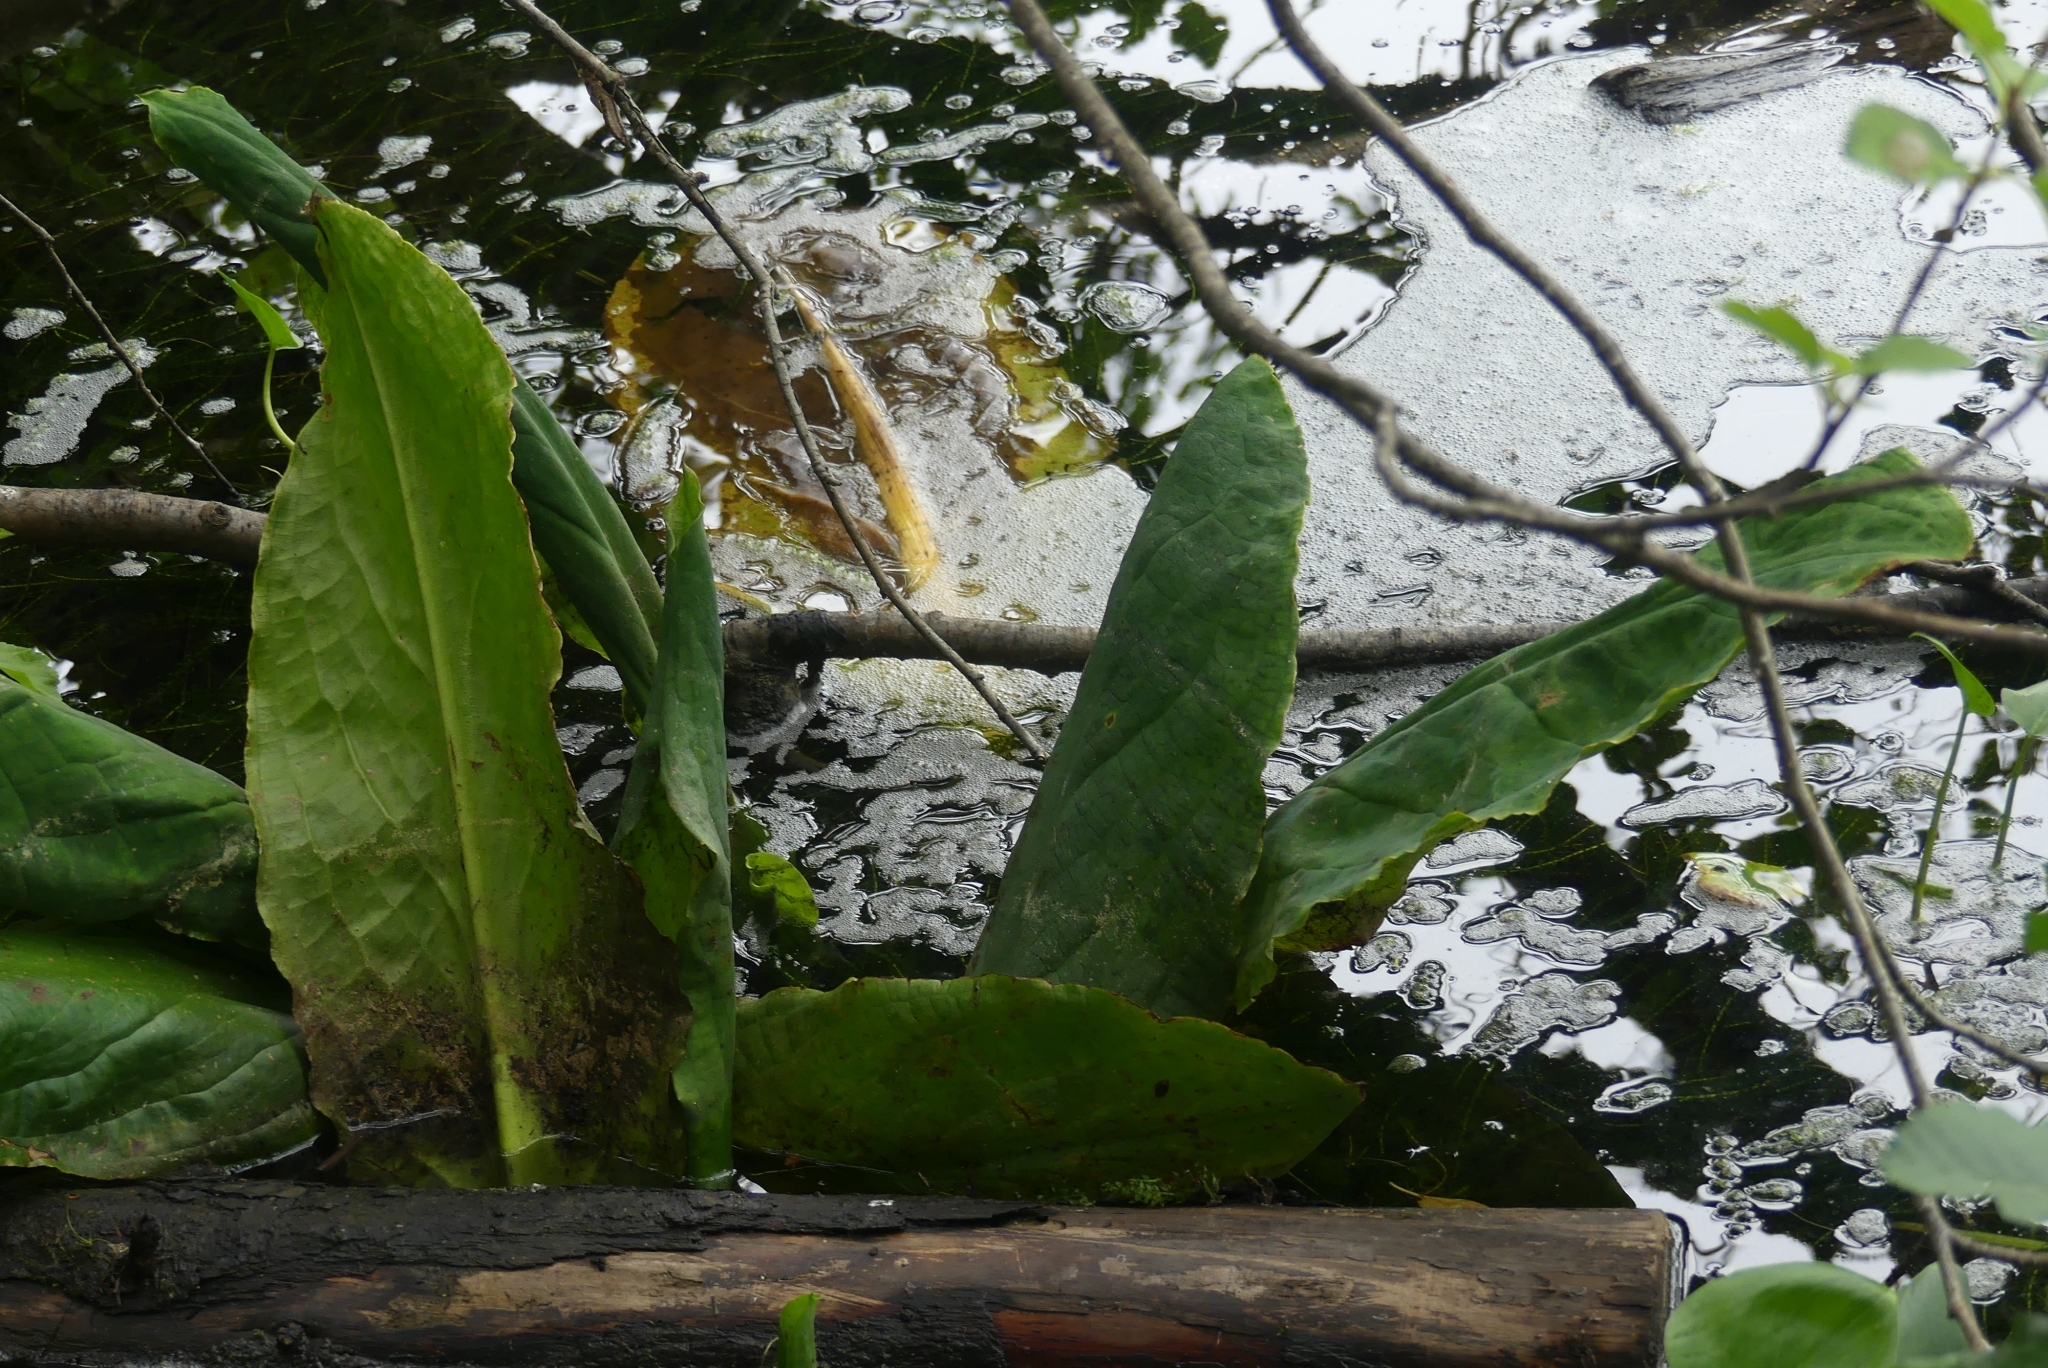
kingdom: Plantae
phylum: Tracheophyta
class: Liliopsida
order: Alismatales
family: Araceae
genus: Lysichiton
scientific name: Lysichiton americanus
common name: American skunk cabbage
